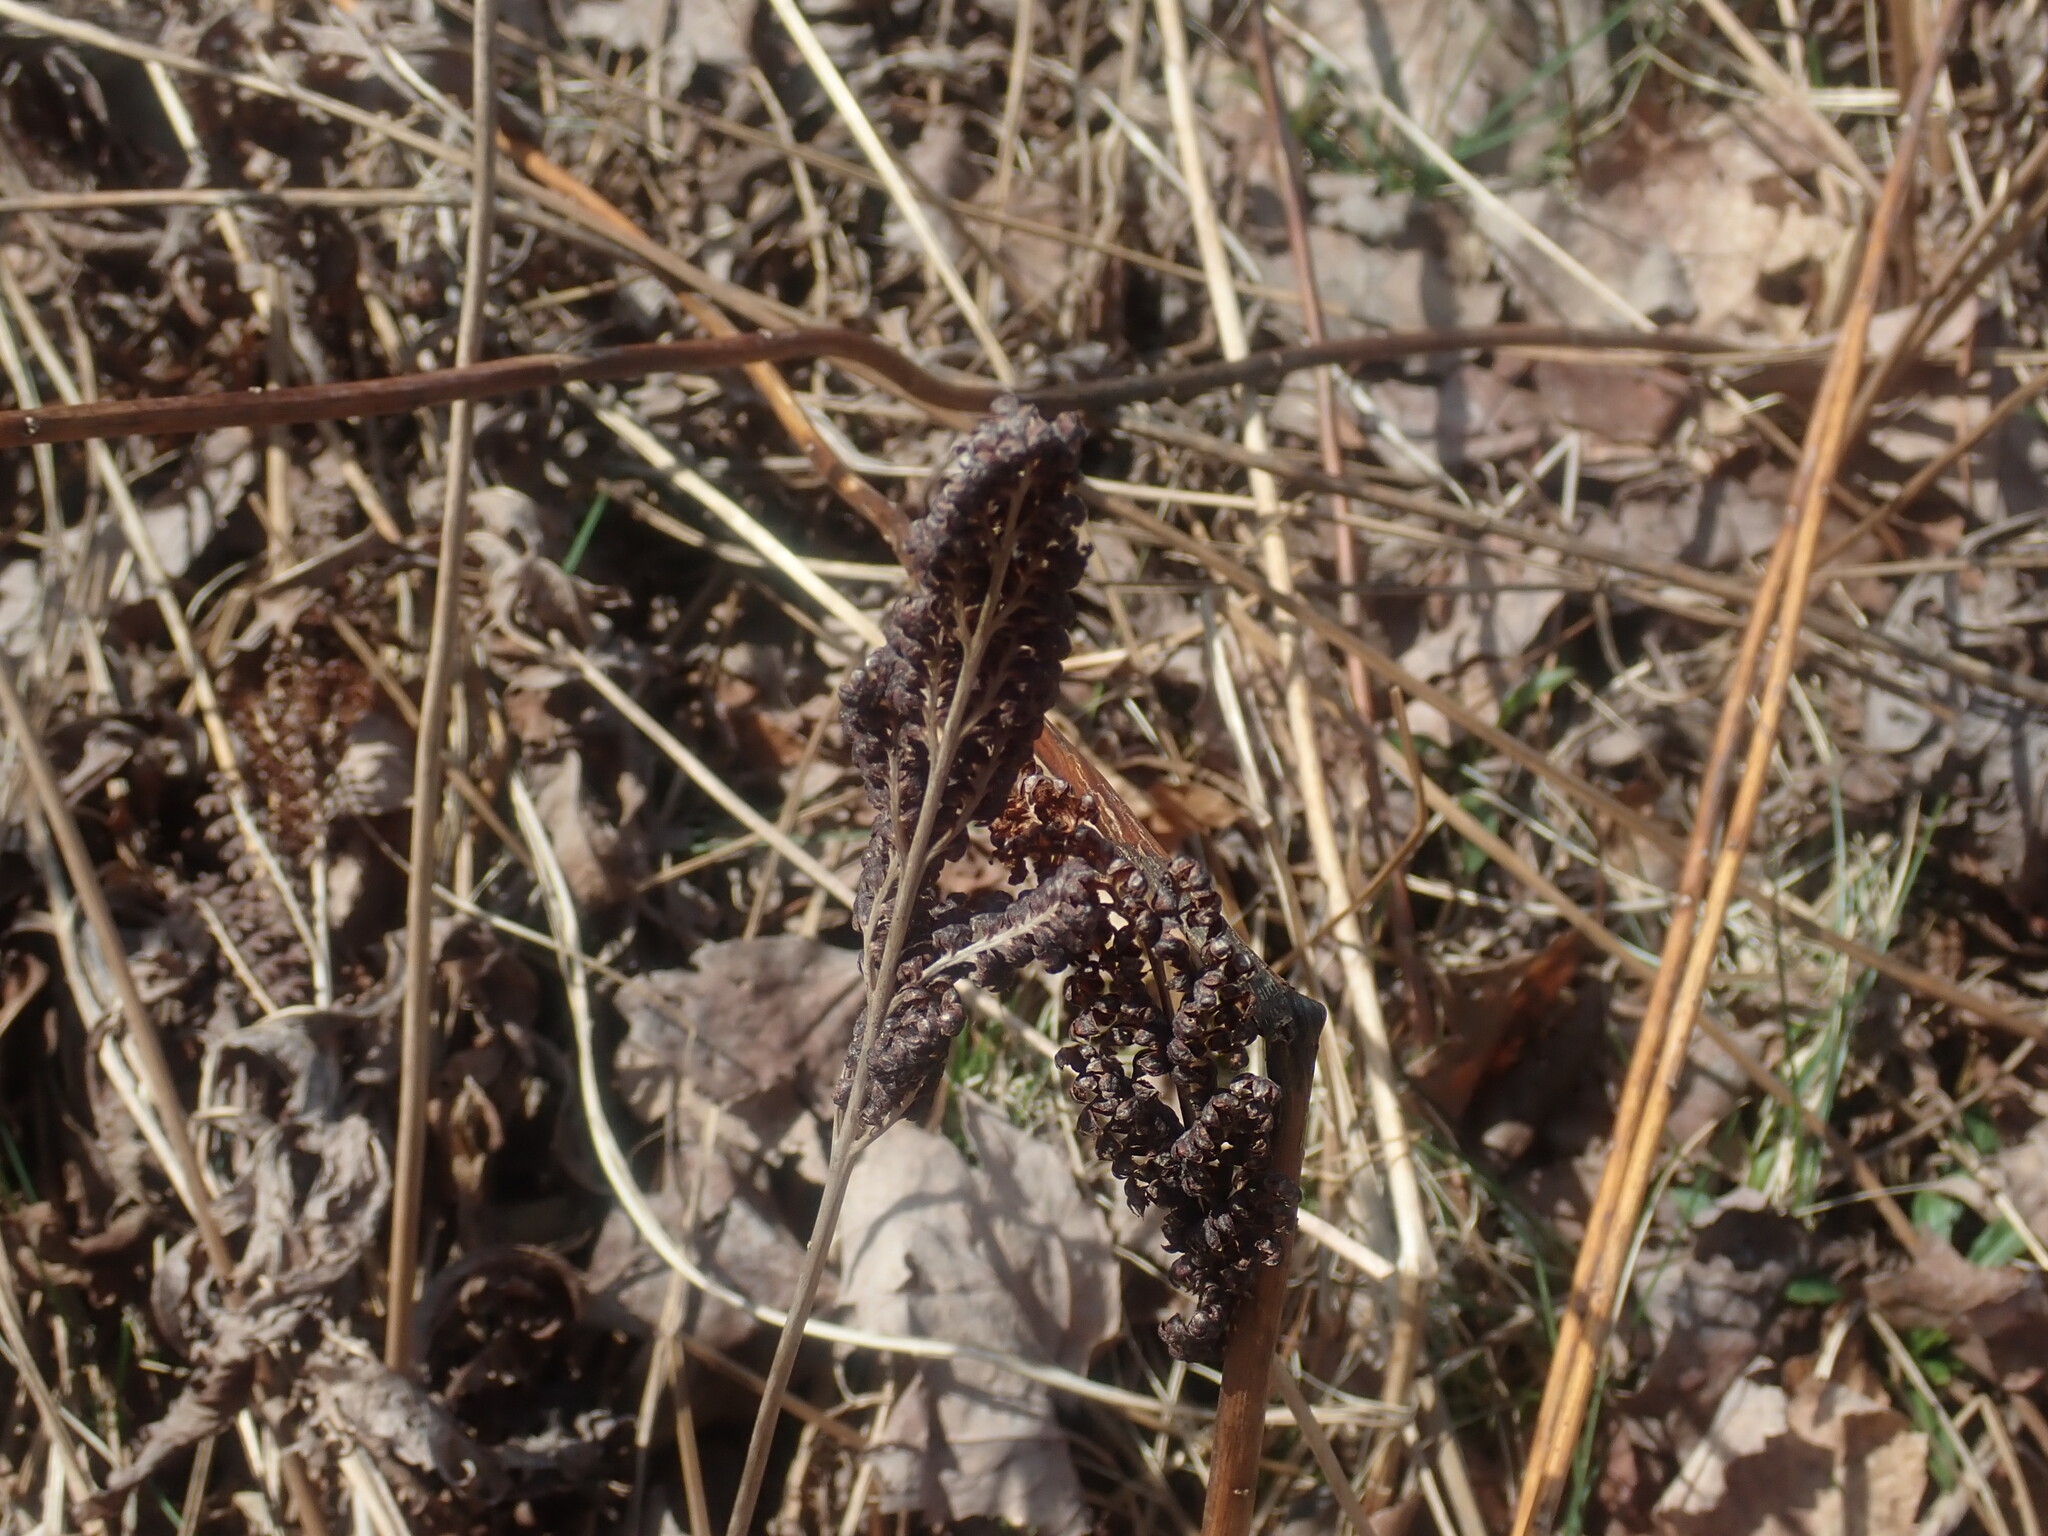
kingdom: Plantae
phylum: Tracheophyta
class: Polypodiopsida
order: Polypodiales
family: Onocleaceae
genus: Onoclea
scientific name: Onoclea sensibilis
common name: Sensitive fern
